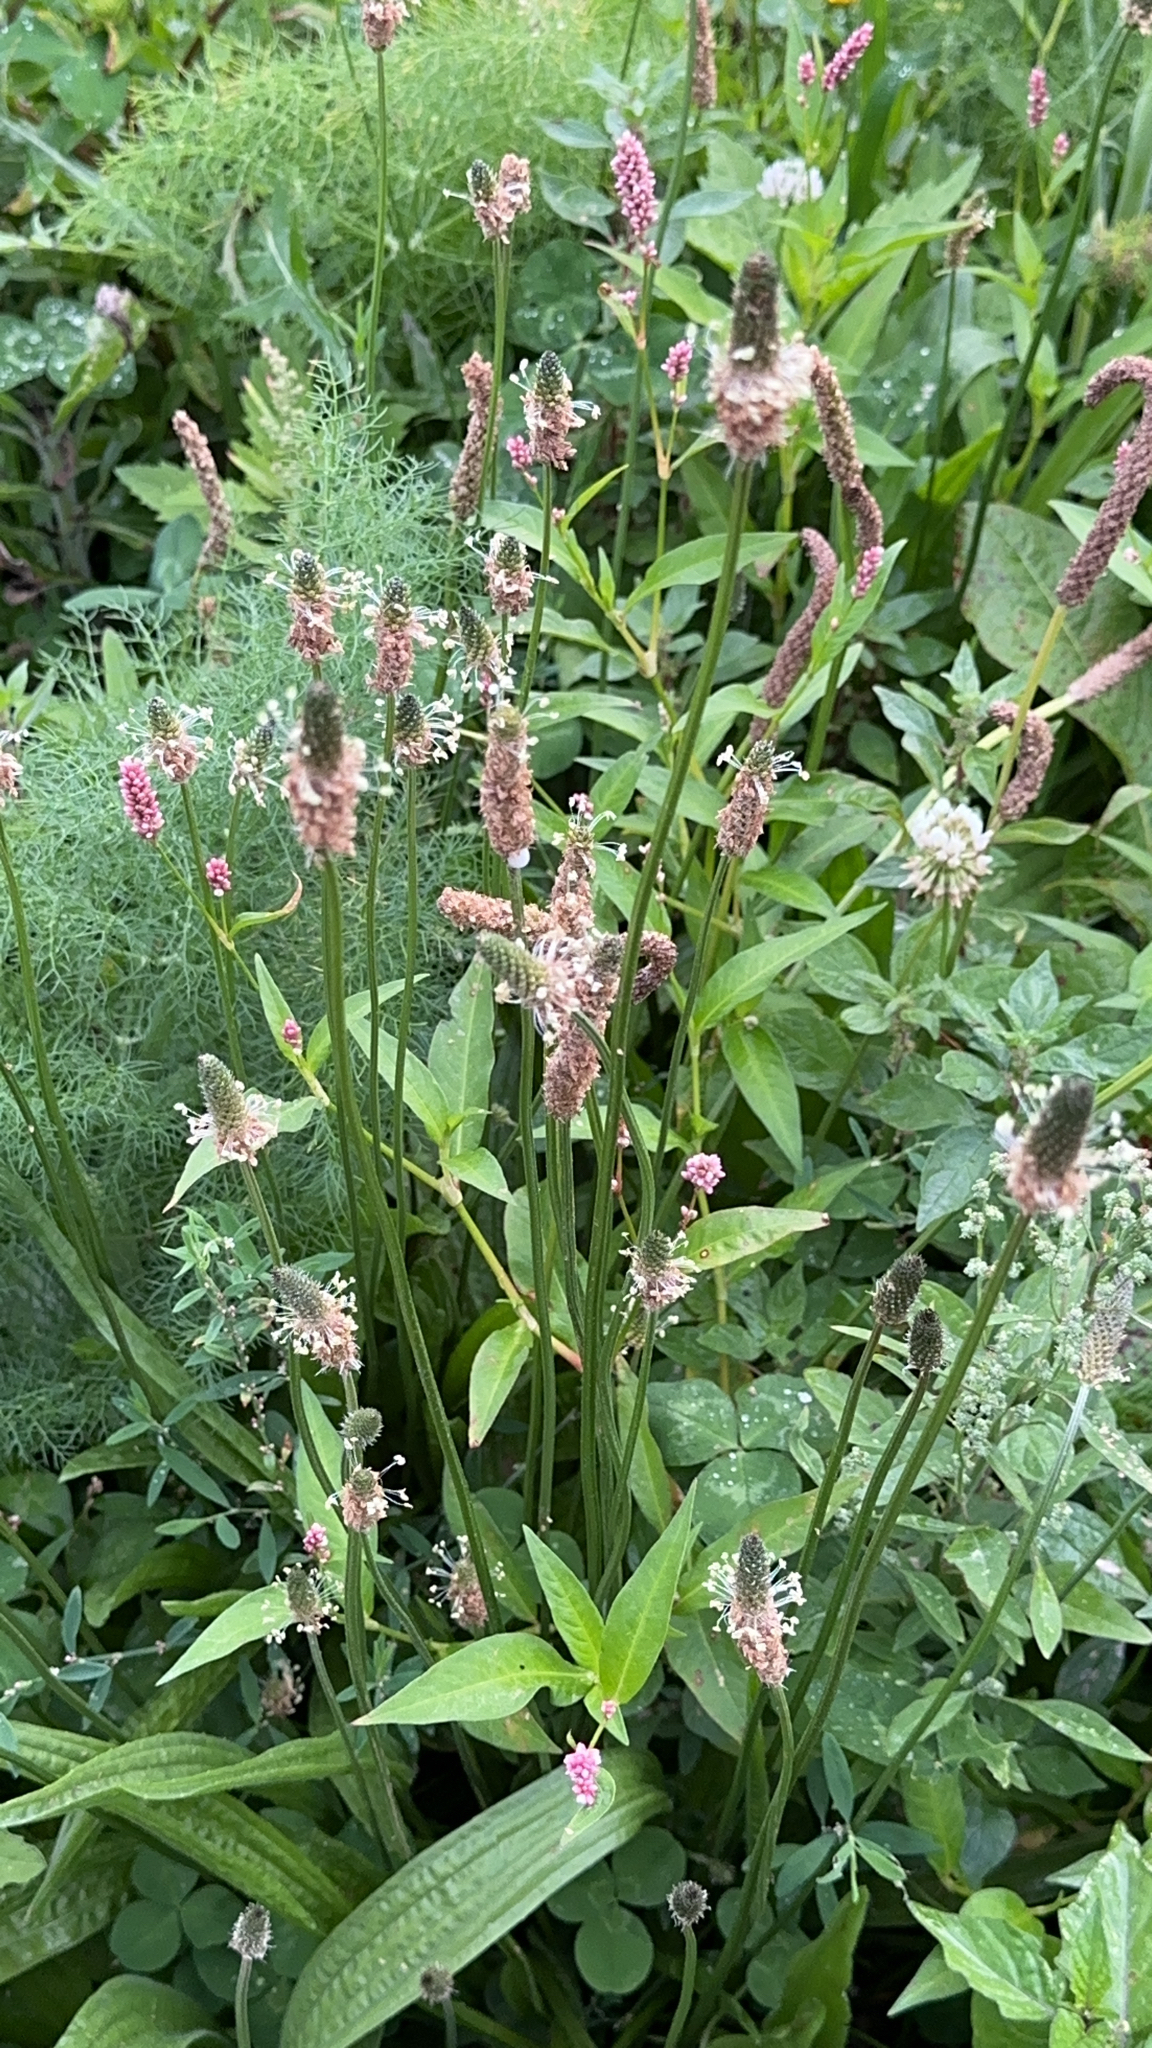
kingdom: Plantae
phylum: Tracheophyta
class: Magnoliopsida
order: Lamiales
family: Plantaginaceae
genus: Plantago
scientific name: Plantago lanceolata
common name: Ribwort plantain
